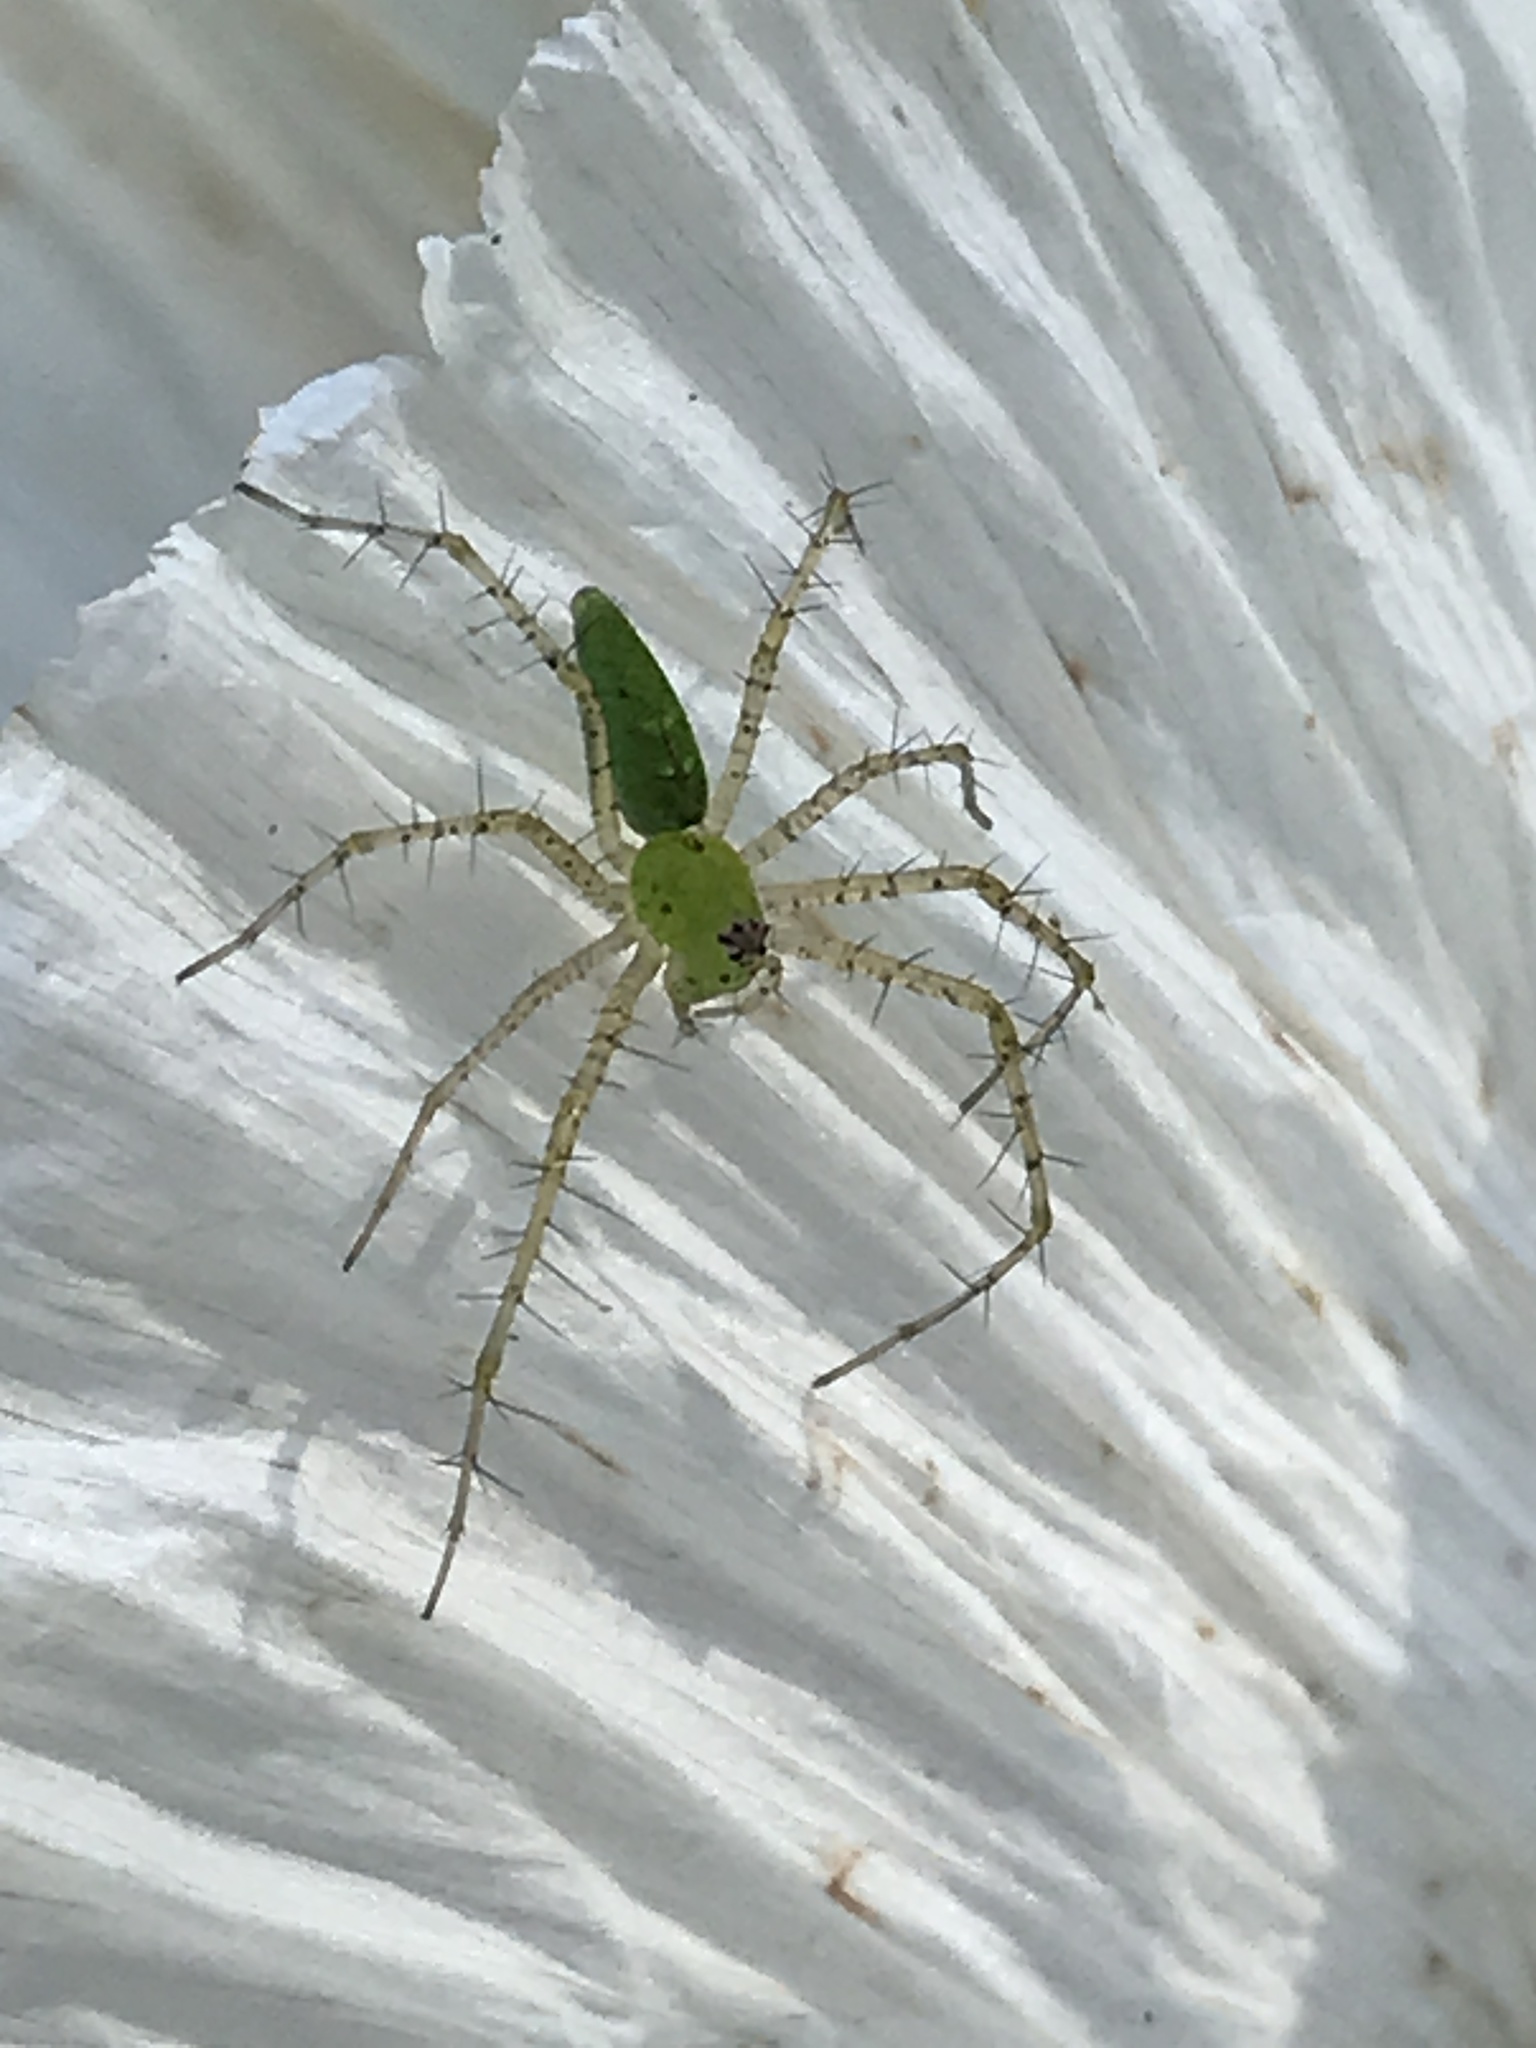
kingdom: Animalia
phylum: Arthropoda
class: Arachnida
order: Araneae
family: Oxyopidae
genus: Peucetia
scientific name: Peucetia viridans
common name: Lynx spiders
